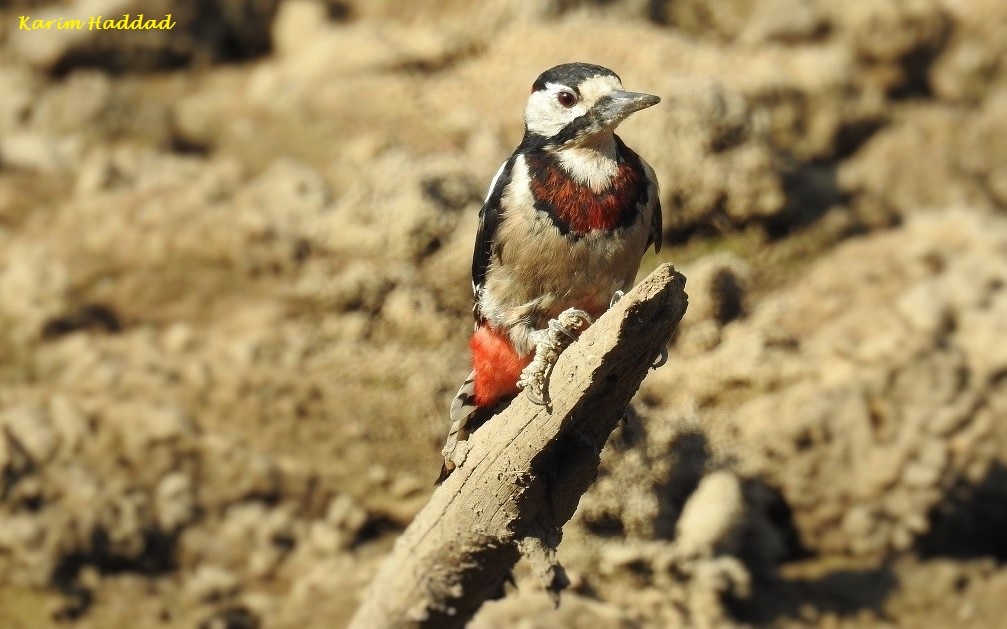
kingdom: Animalia
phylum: Chordata
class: Aves
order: Piciformes
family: Picidae
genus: Dendrocopos
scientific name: Dendrocopos major
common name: Great spotted woodpecker
